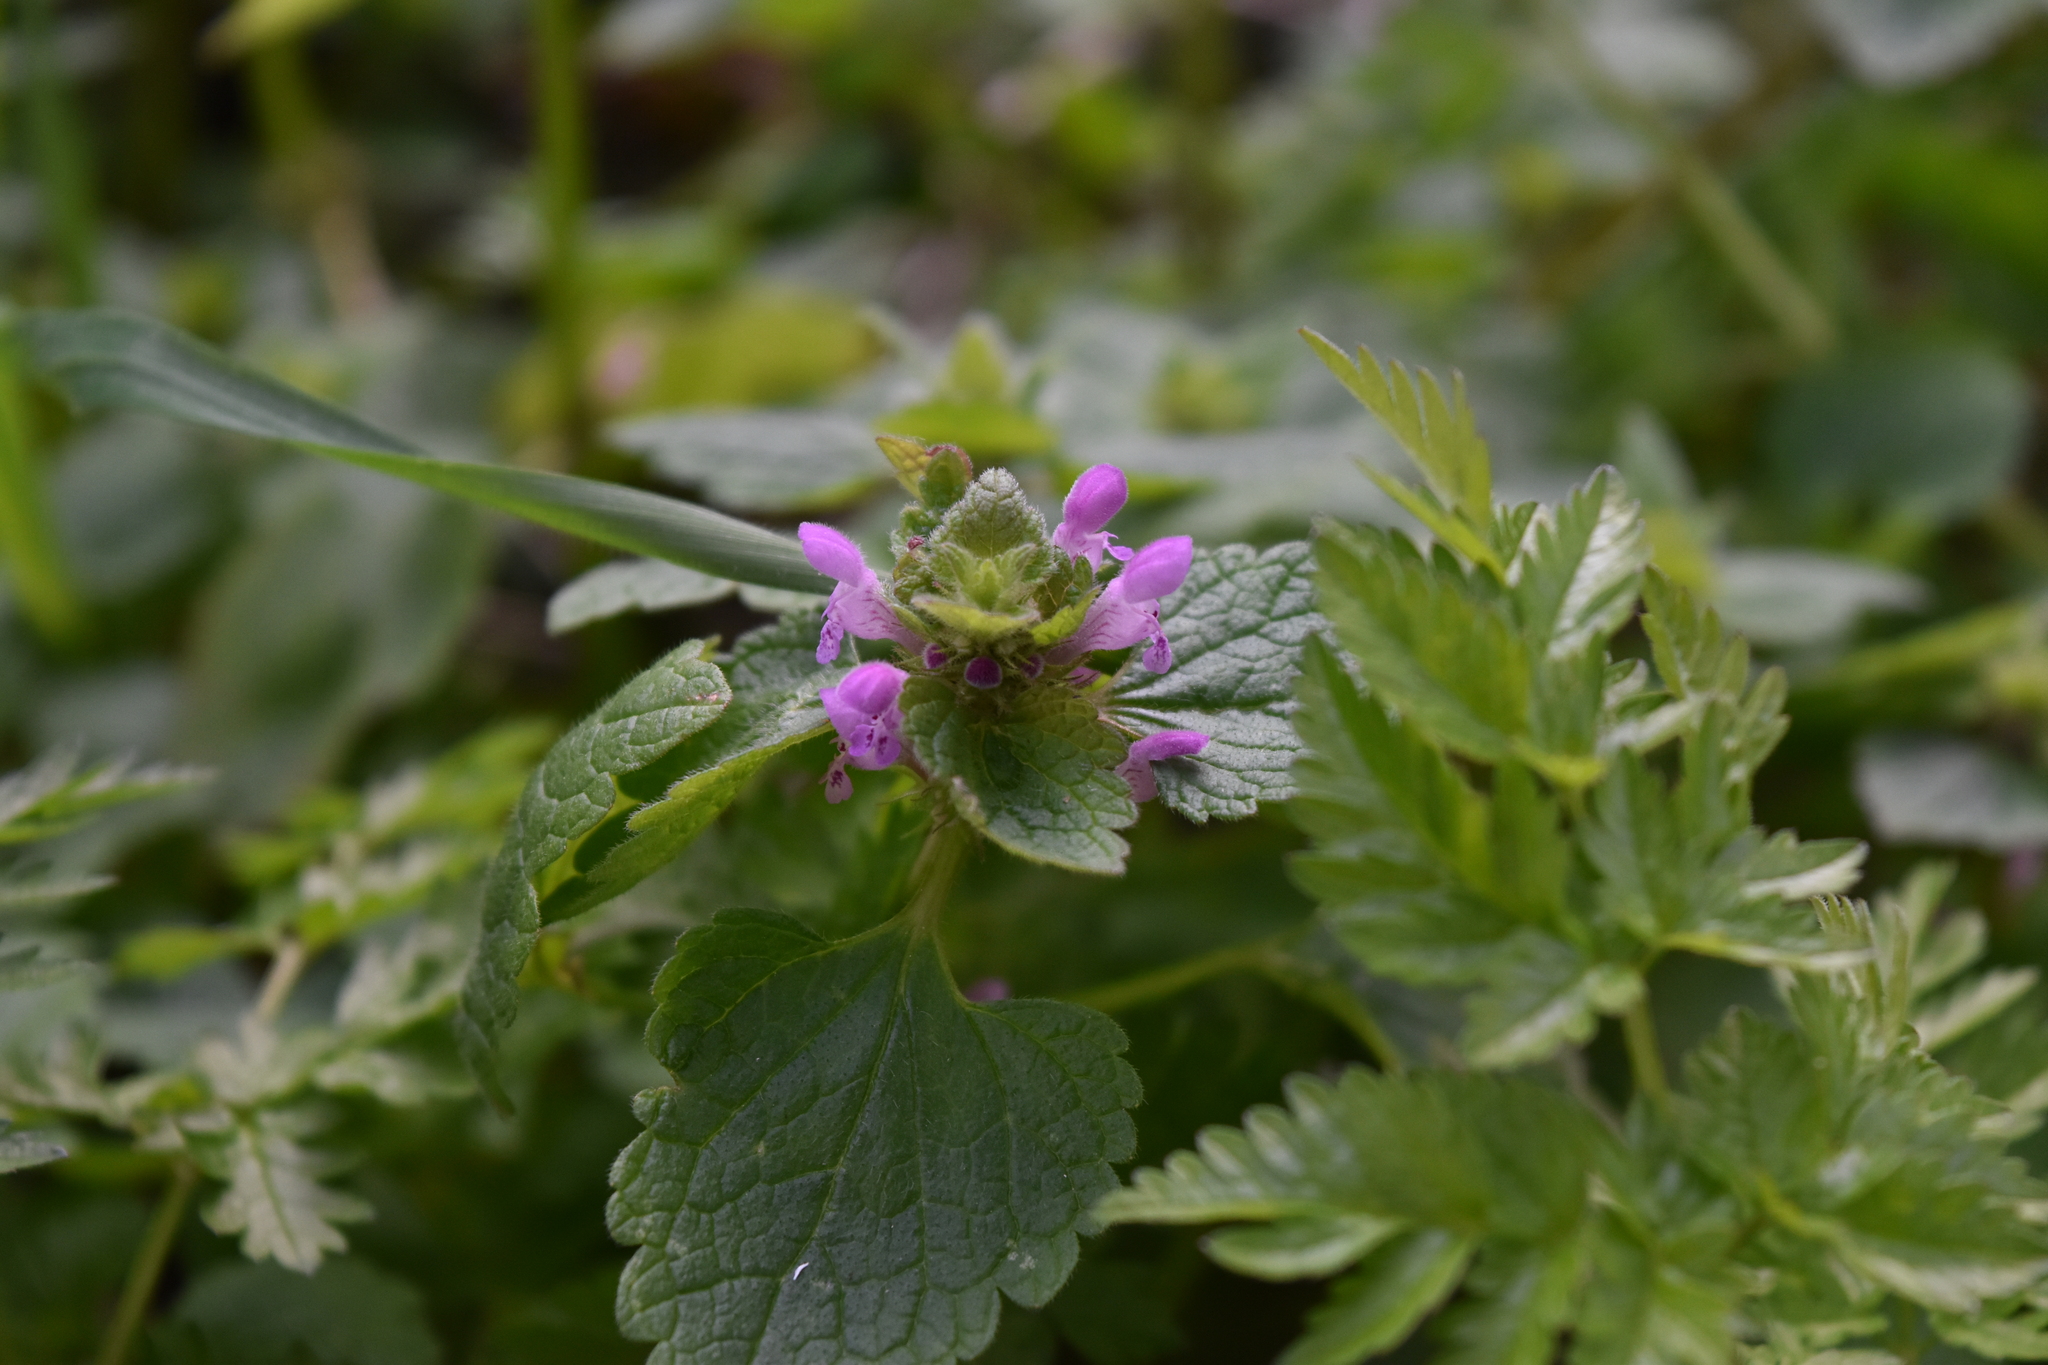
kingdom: Plantae
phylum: Tracheophyta
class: Magnoliopsida
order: Lamiales
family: Lamiaceae
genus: Lamium
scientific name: Lamium purpureum
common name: Red dead-nettle
